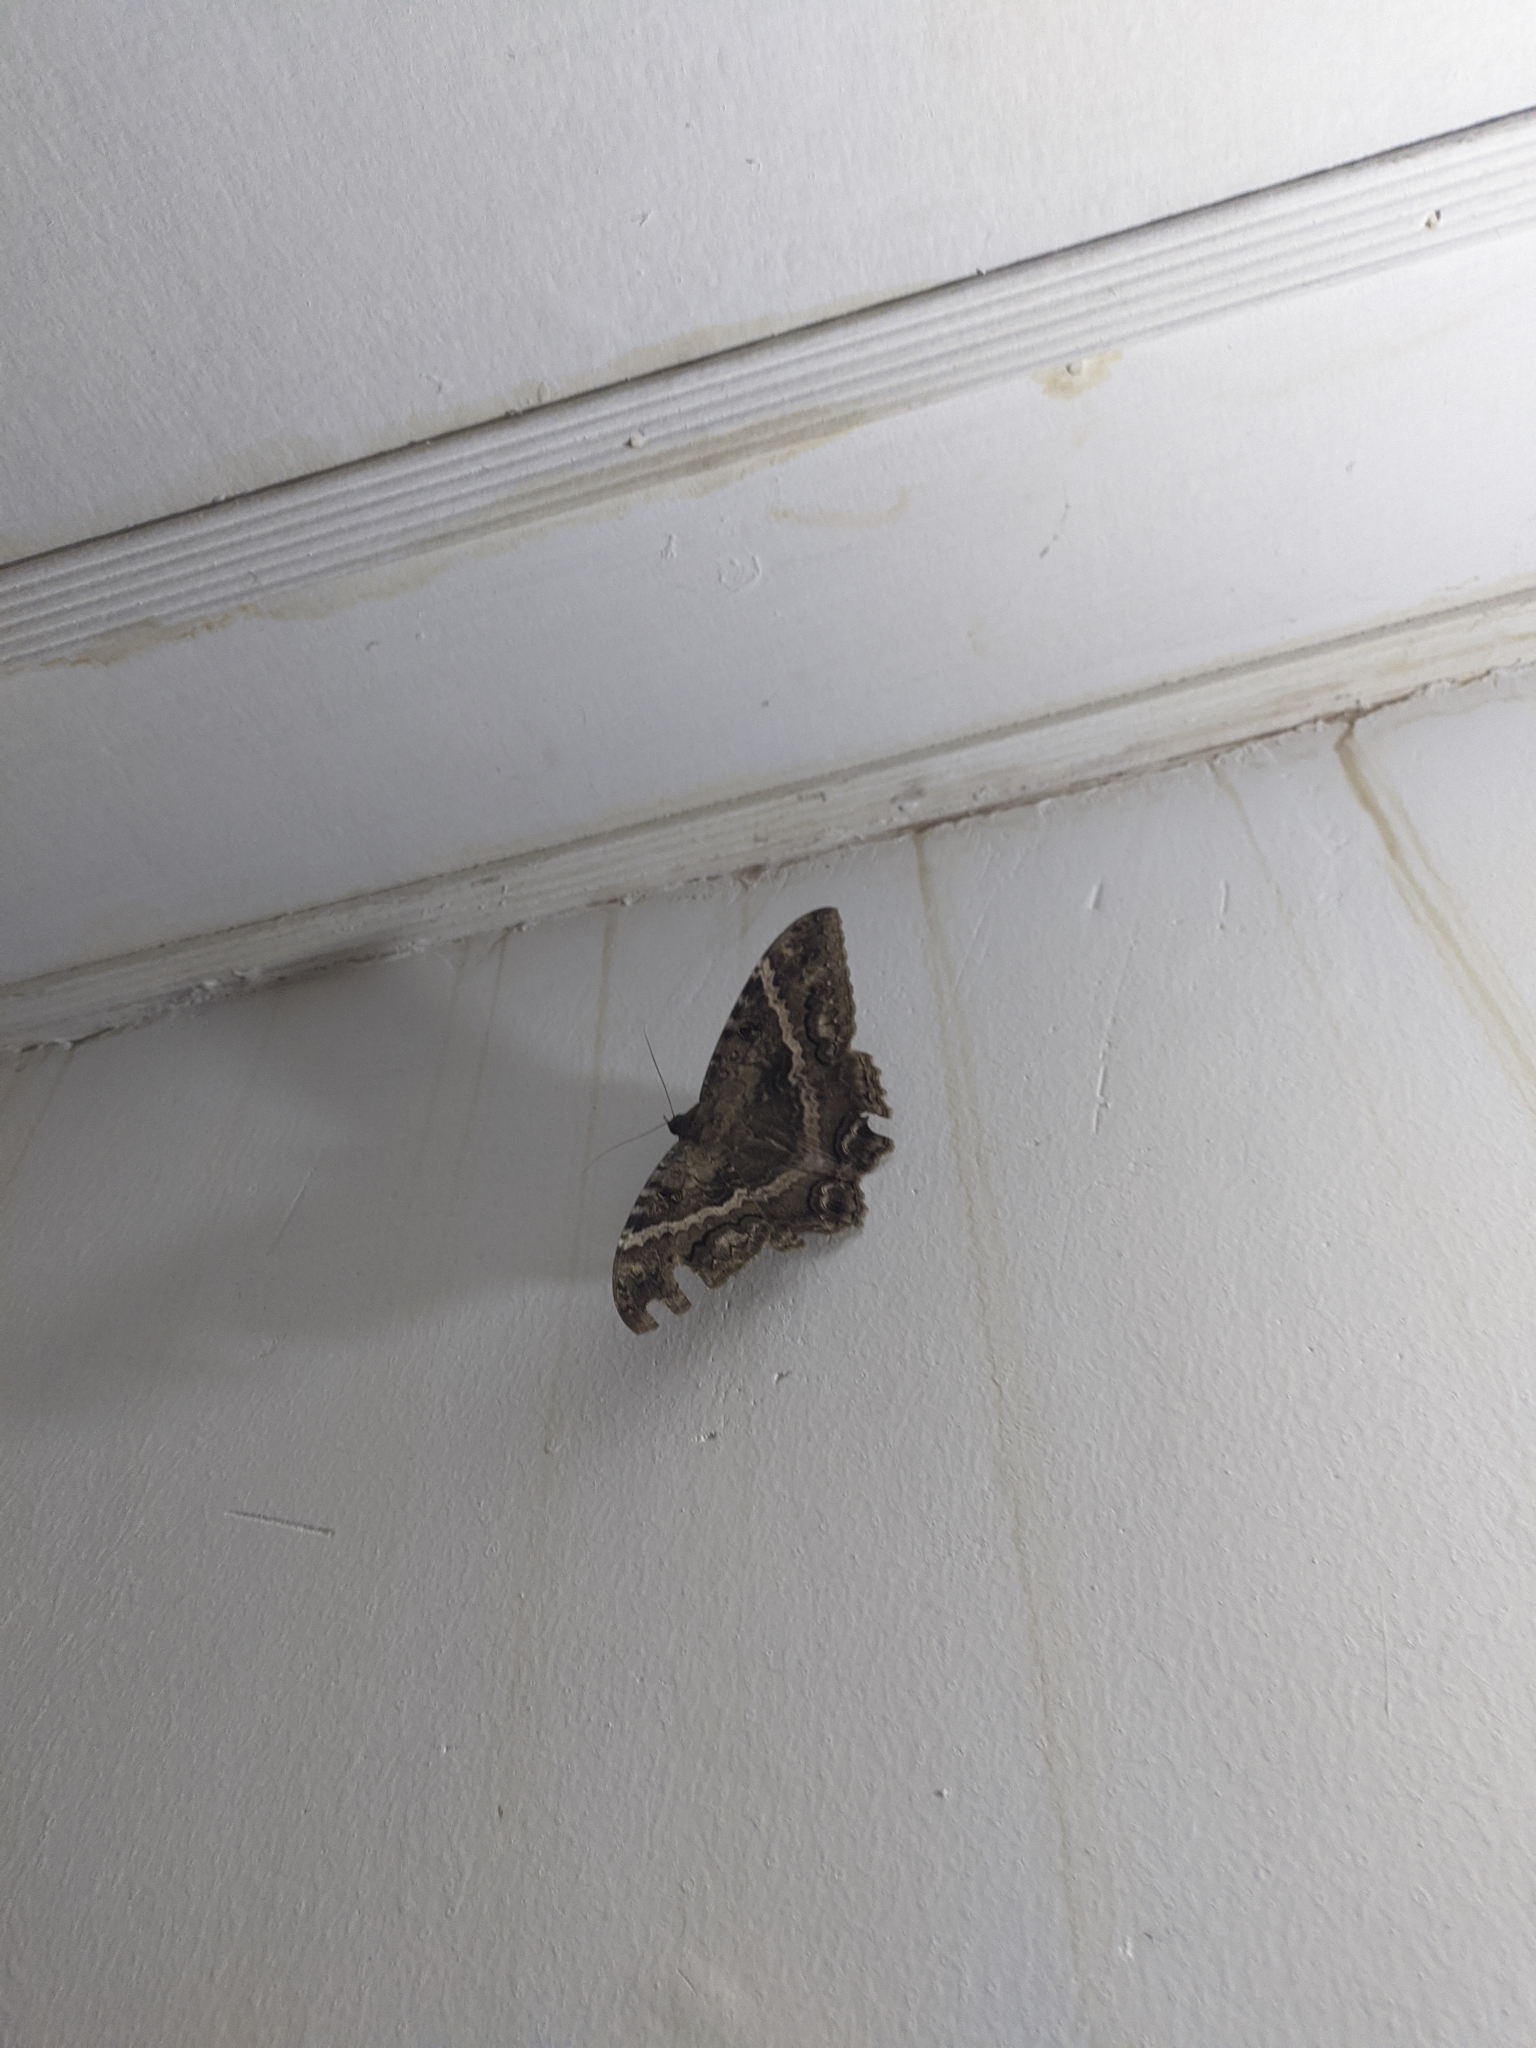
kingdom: Animalia
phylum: Arthropoda
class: Insecta
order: Lepidoptera
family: Erebidae
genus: Ascalapha
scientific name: Ascalapha odorata
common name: Black witch
